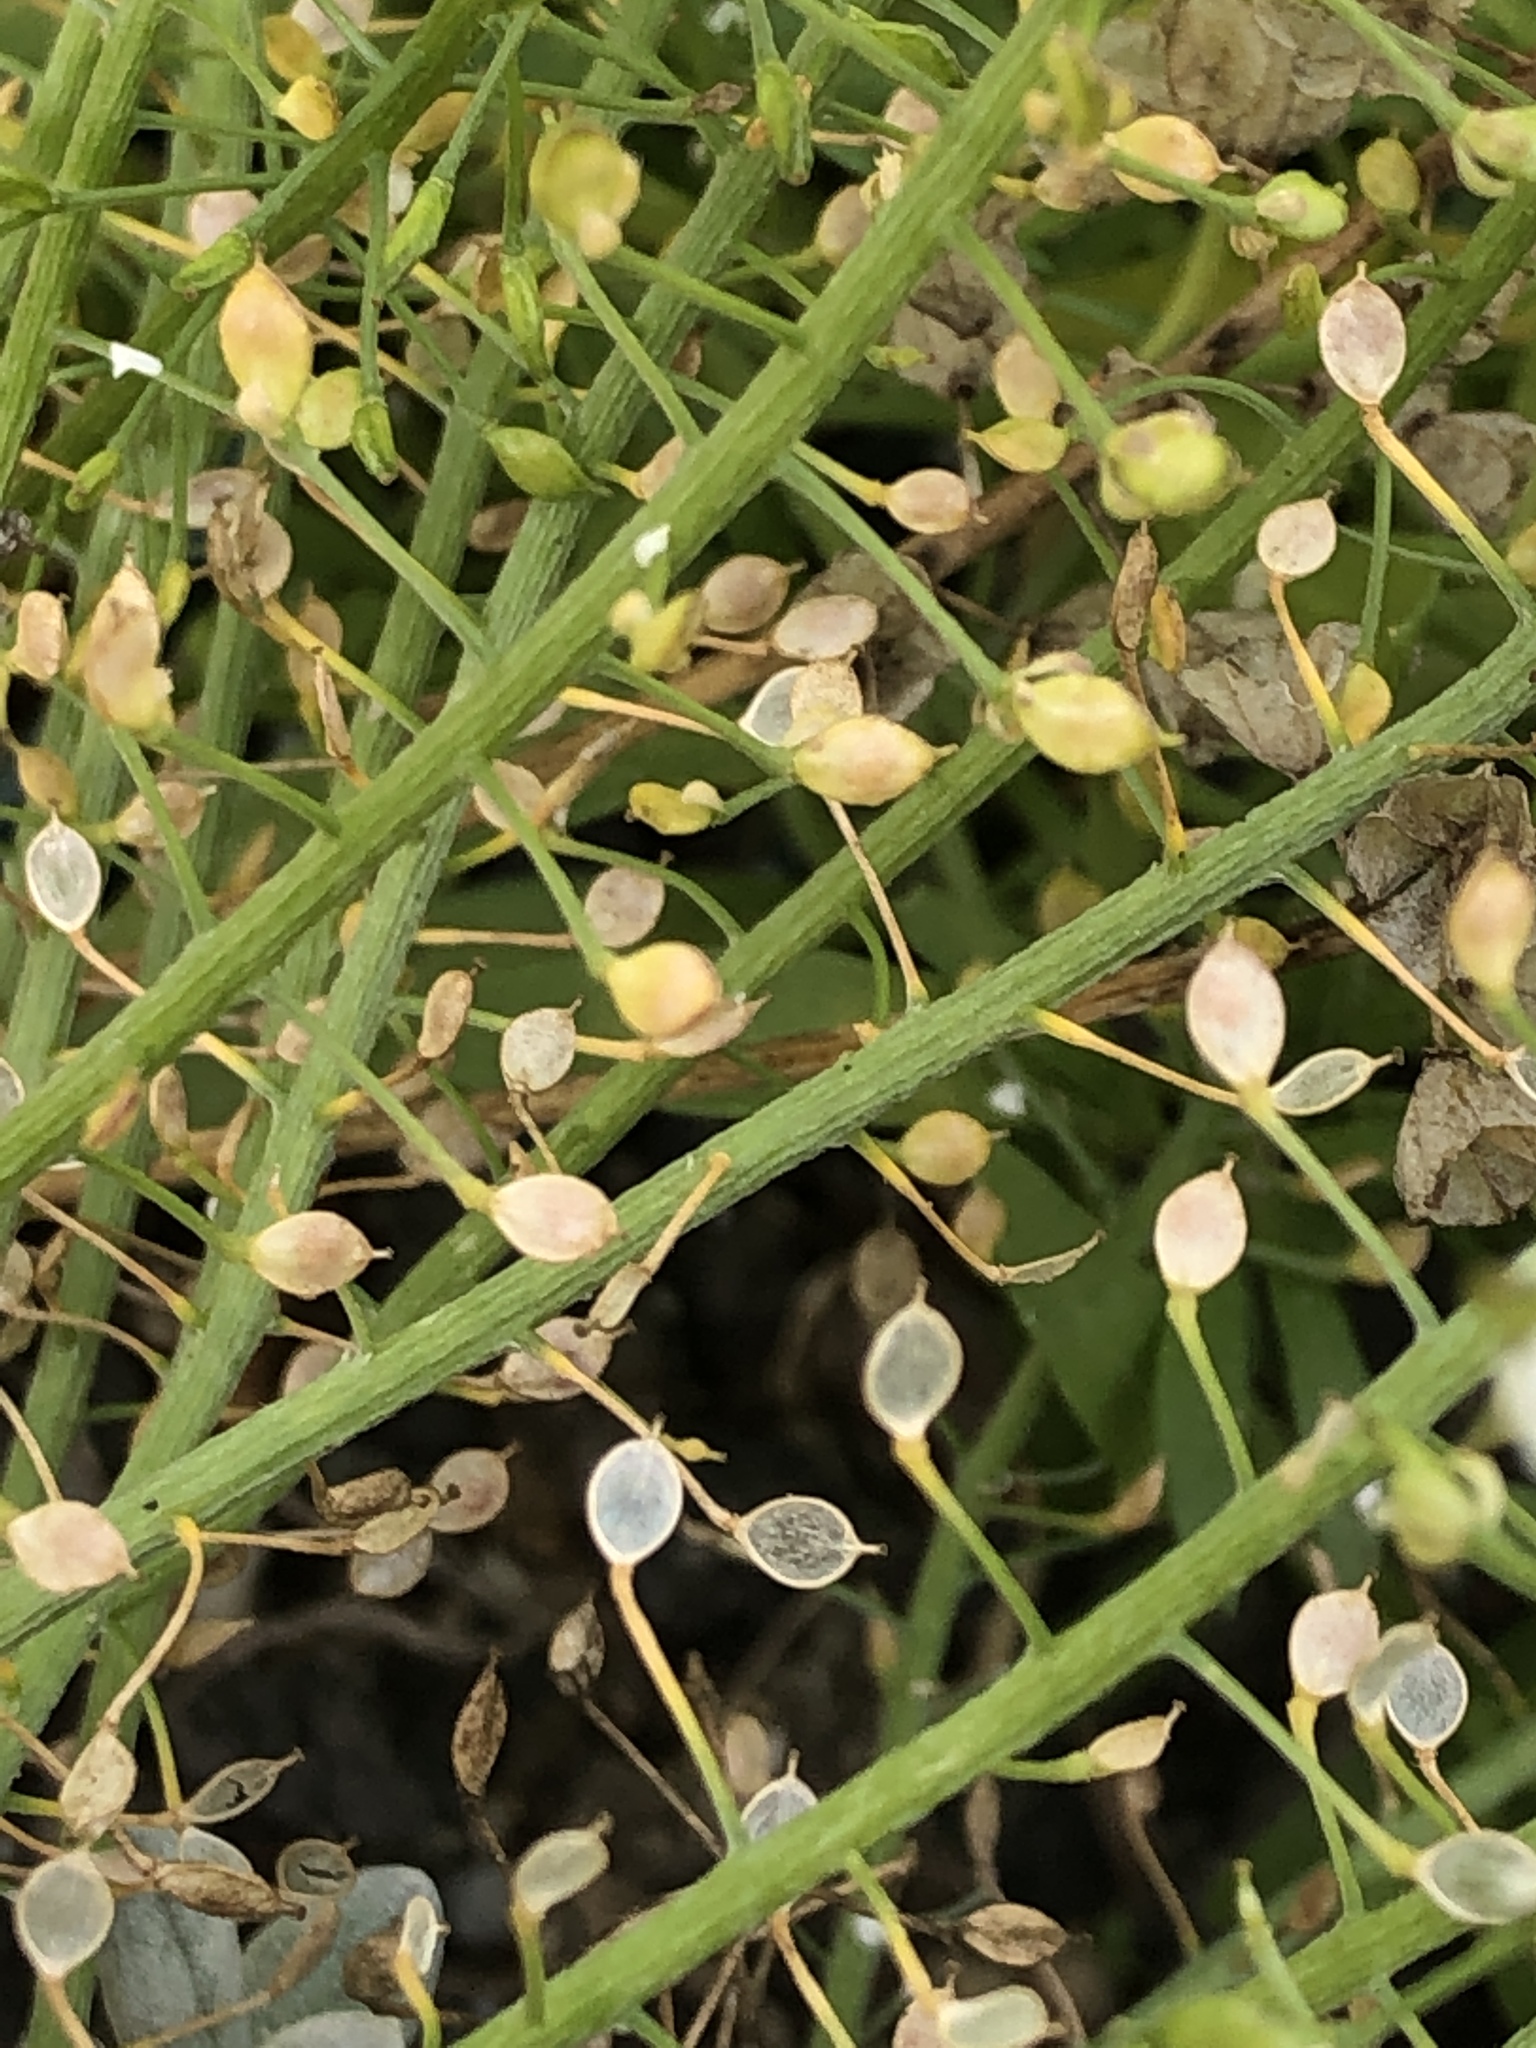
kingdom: Plantae
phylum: Tracheophyta
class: Magnoliopsida
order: Brassicales
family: Brassicaceae
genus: Lobularia
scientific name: Lobularia maritima
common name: Sweet alison
